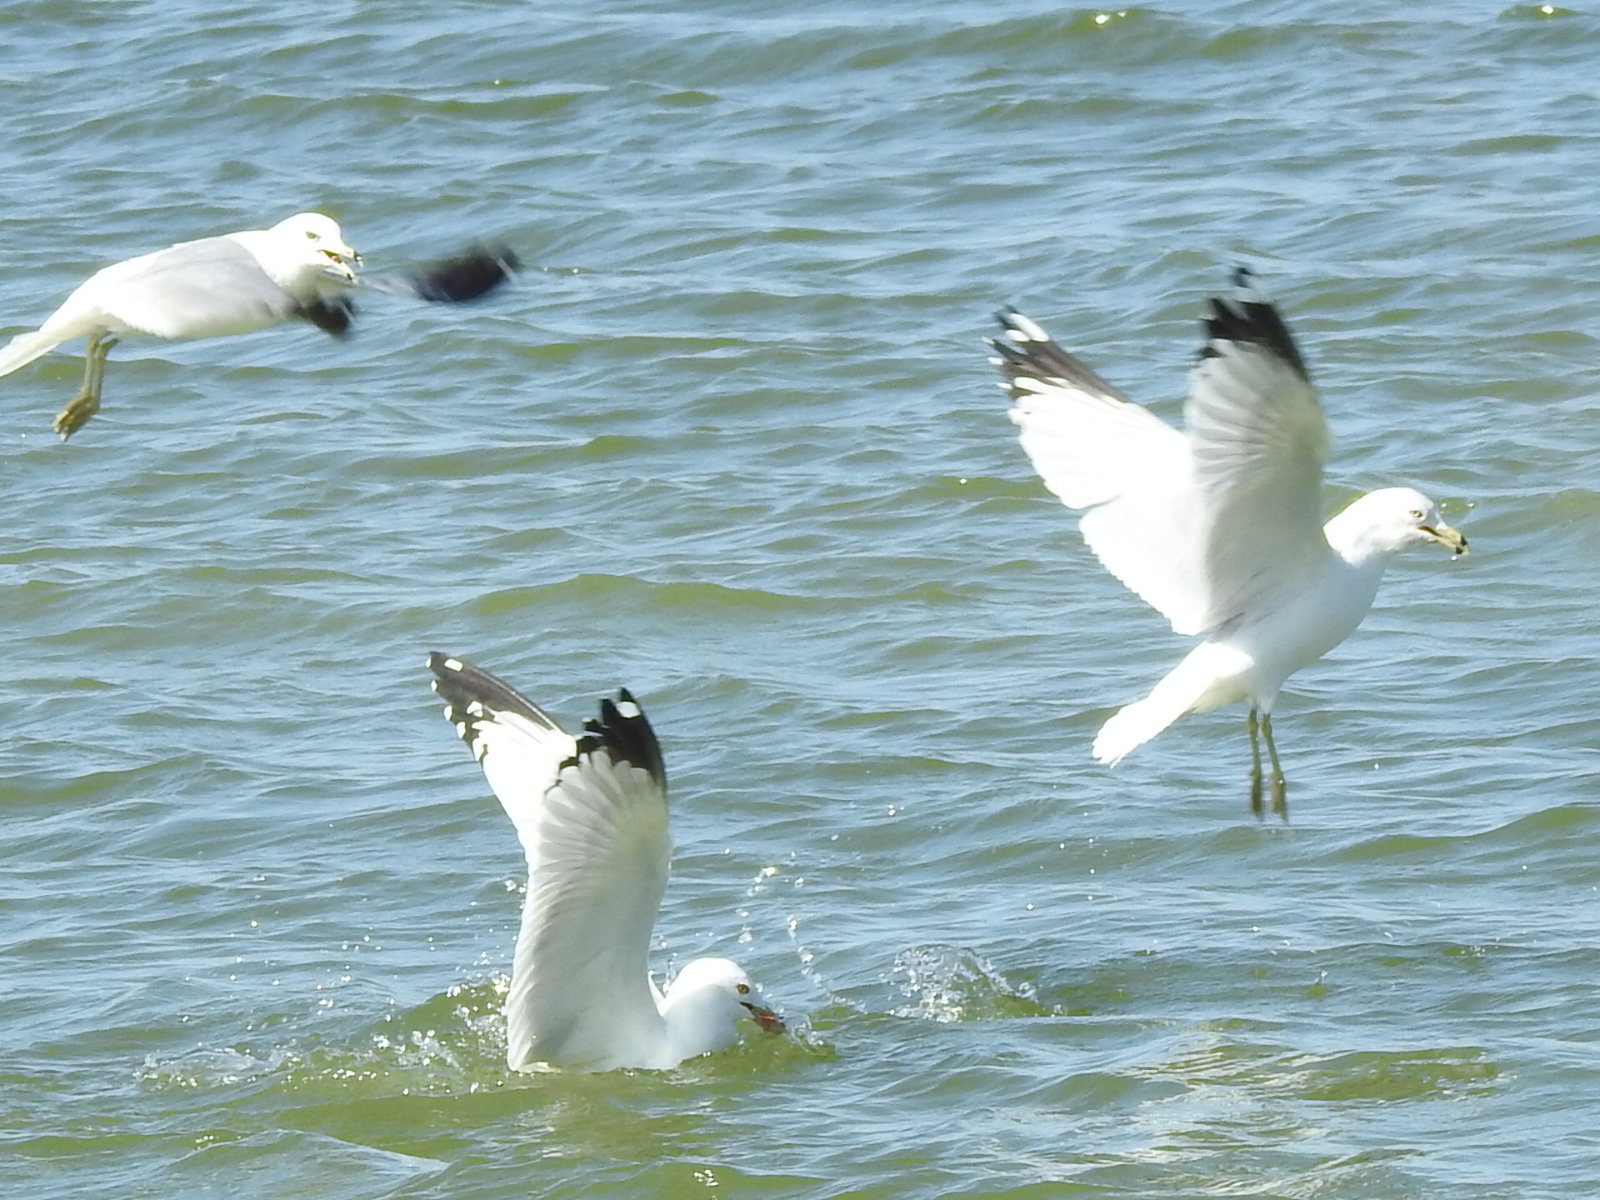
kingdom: Animalia
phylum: Chordata
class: Aves
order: Charadriiformes
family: Laridae
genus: Larus
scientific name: Larus delawarensis
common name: Ring-billed gull
